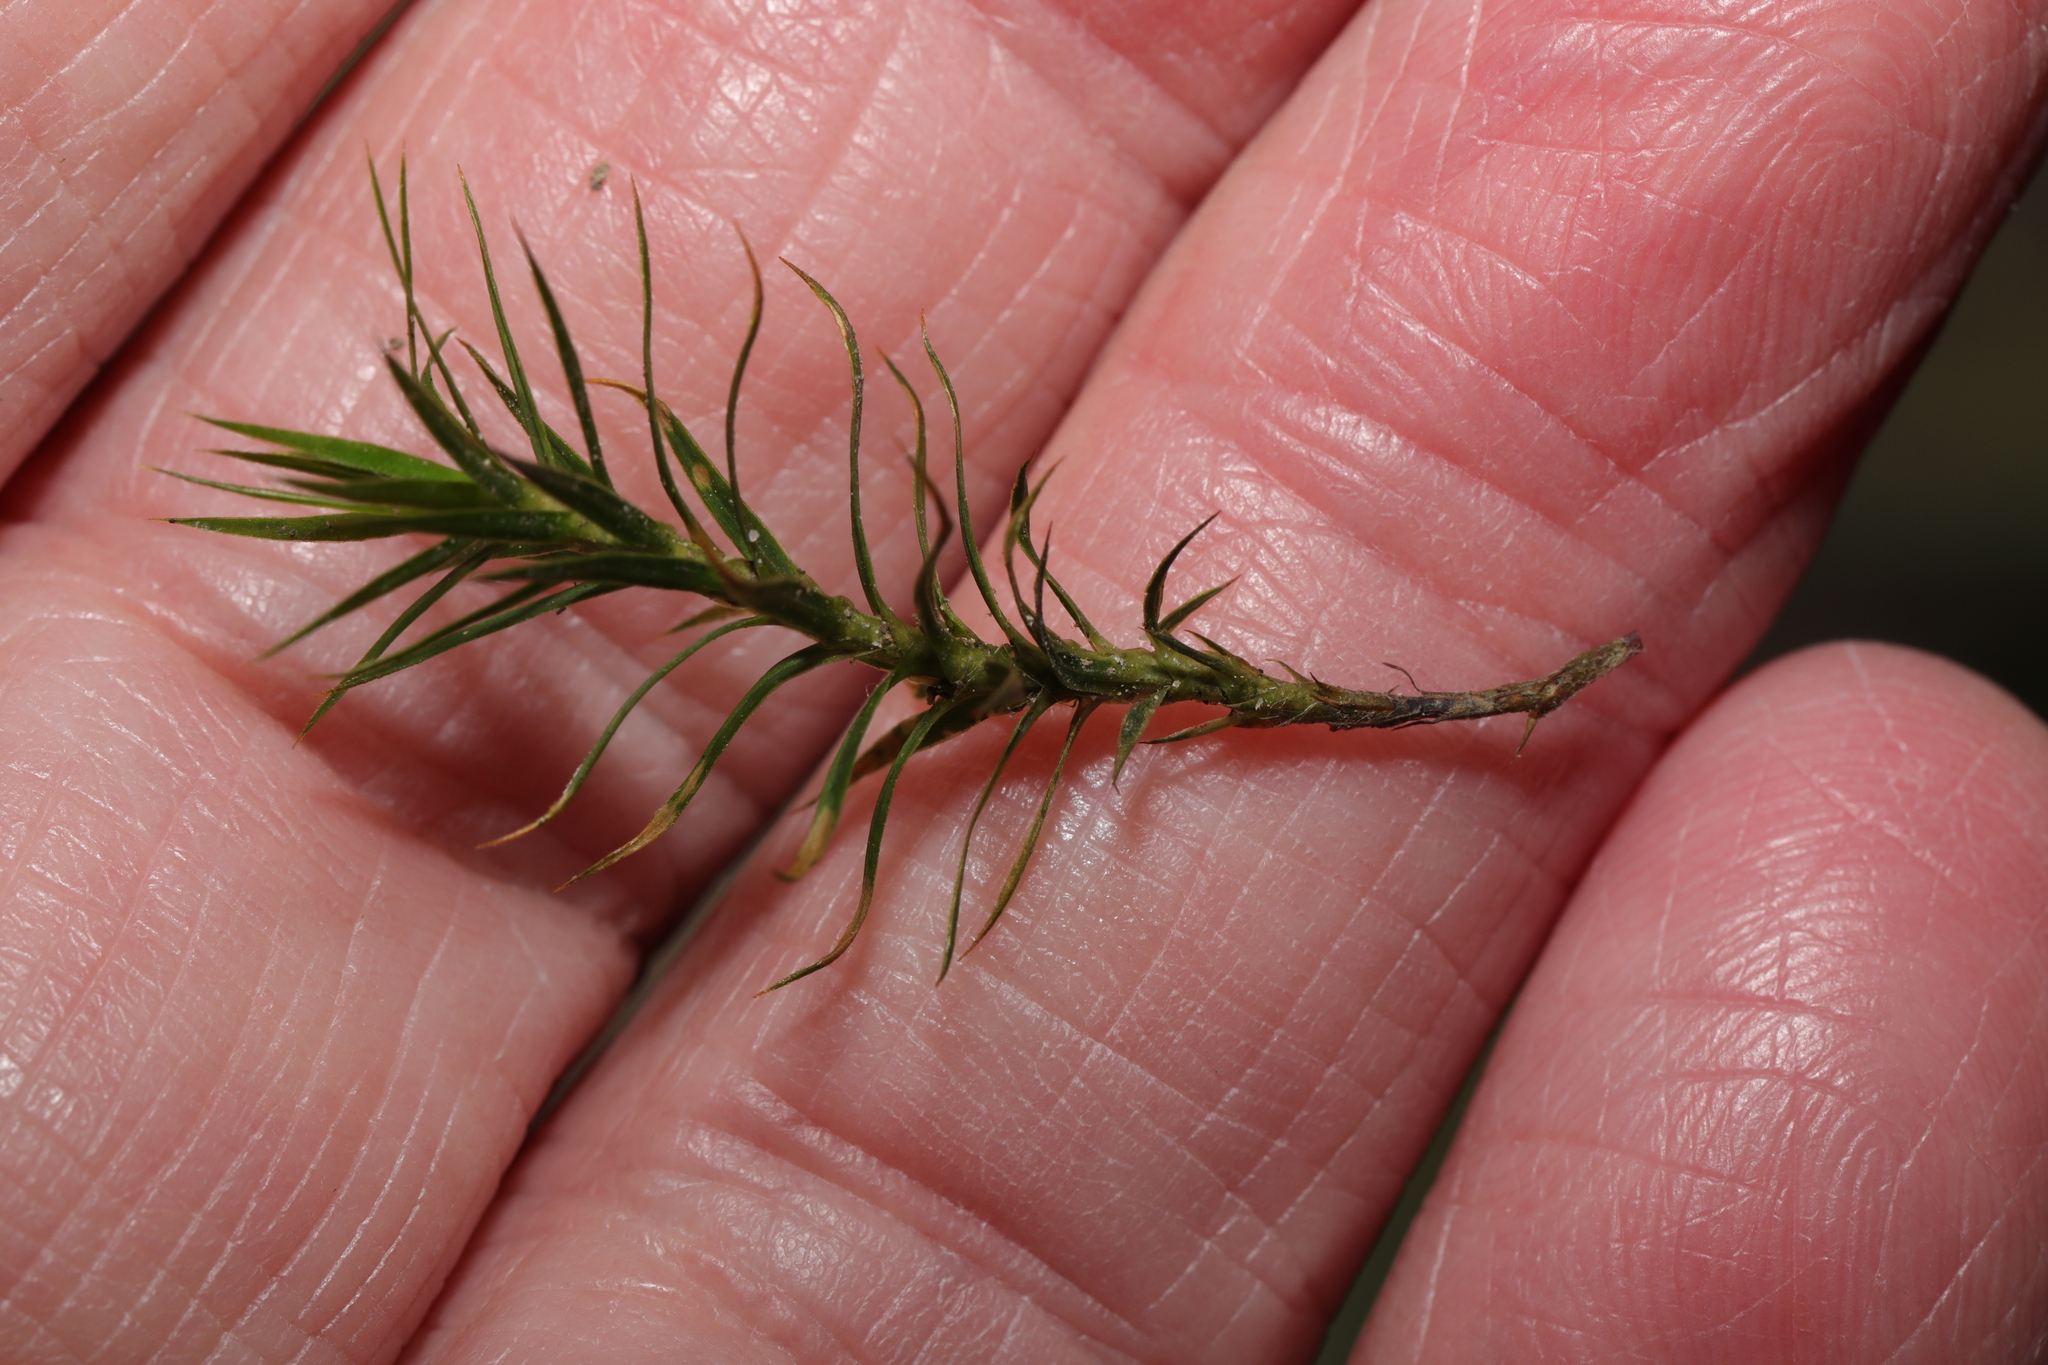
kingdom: Plantae
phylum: Bryophyta
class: Polytrichopsida
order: Polytrichales
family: Polytrichaceae
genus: Polytrichum
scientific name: Polytrichum formosum
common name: Bank haircap moss
